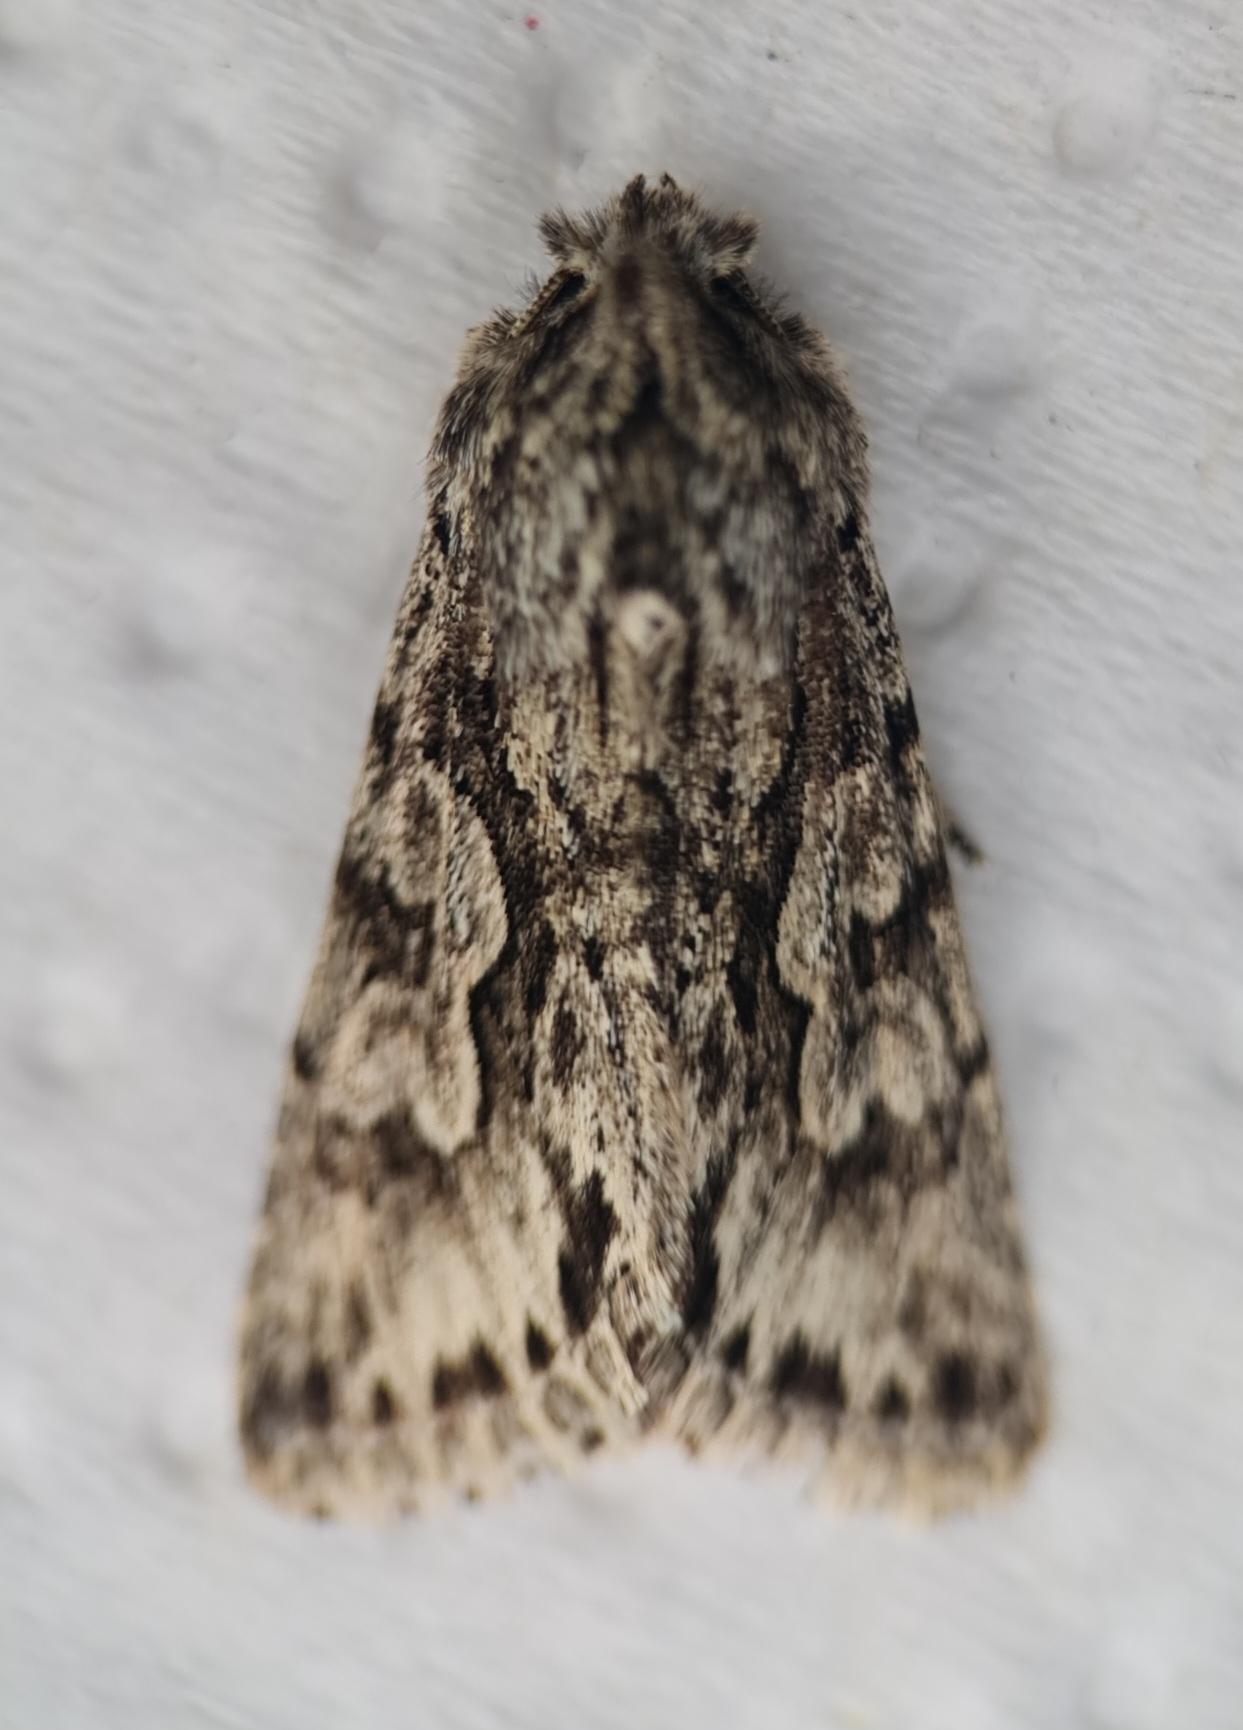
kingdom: Animalia
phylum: Arthropoda
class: Insecta
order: Lepidoptera
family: Noctuidae
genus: Xylocampa
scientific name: Xylocampa areola
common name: Early grey
